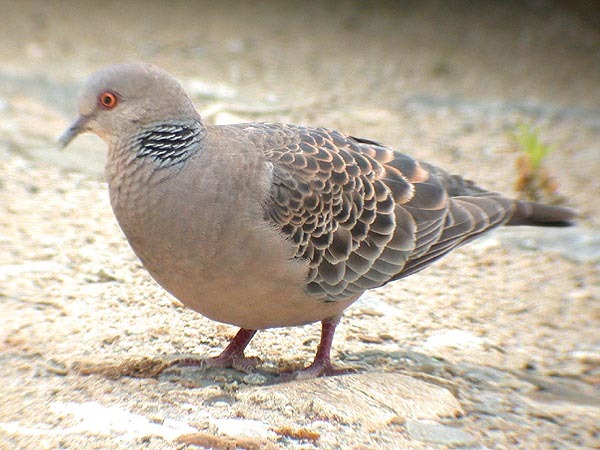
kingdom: Animalia
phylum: Chordata
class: Aves
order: Columbiformes
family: Columbidae
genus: Streptopelia
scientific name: Streptopelia orientalis
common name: Oriental turtle dove
